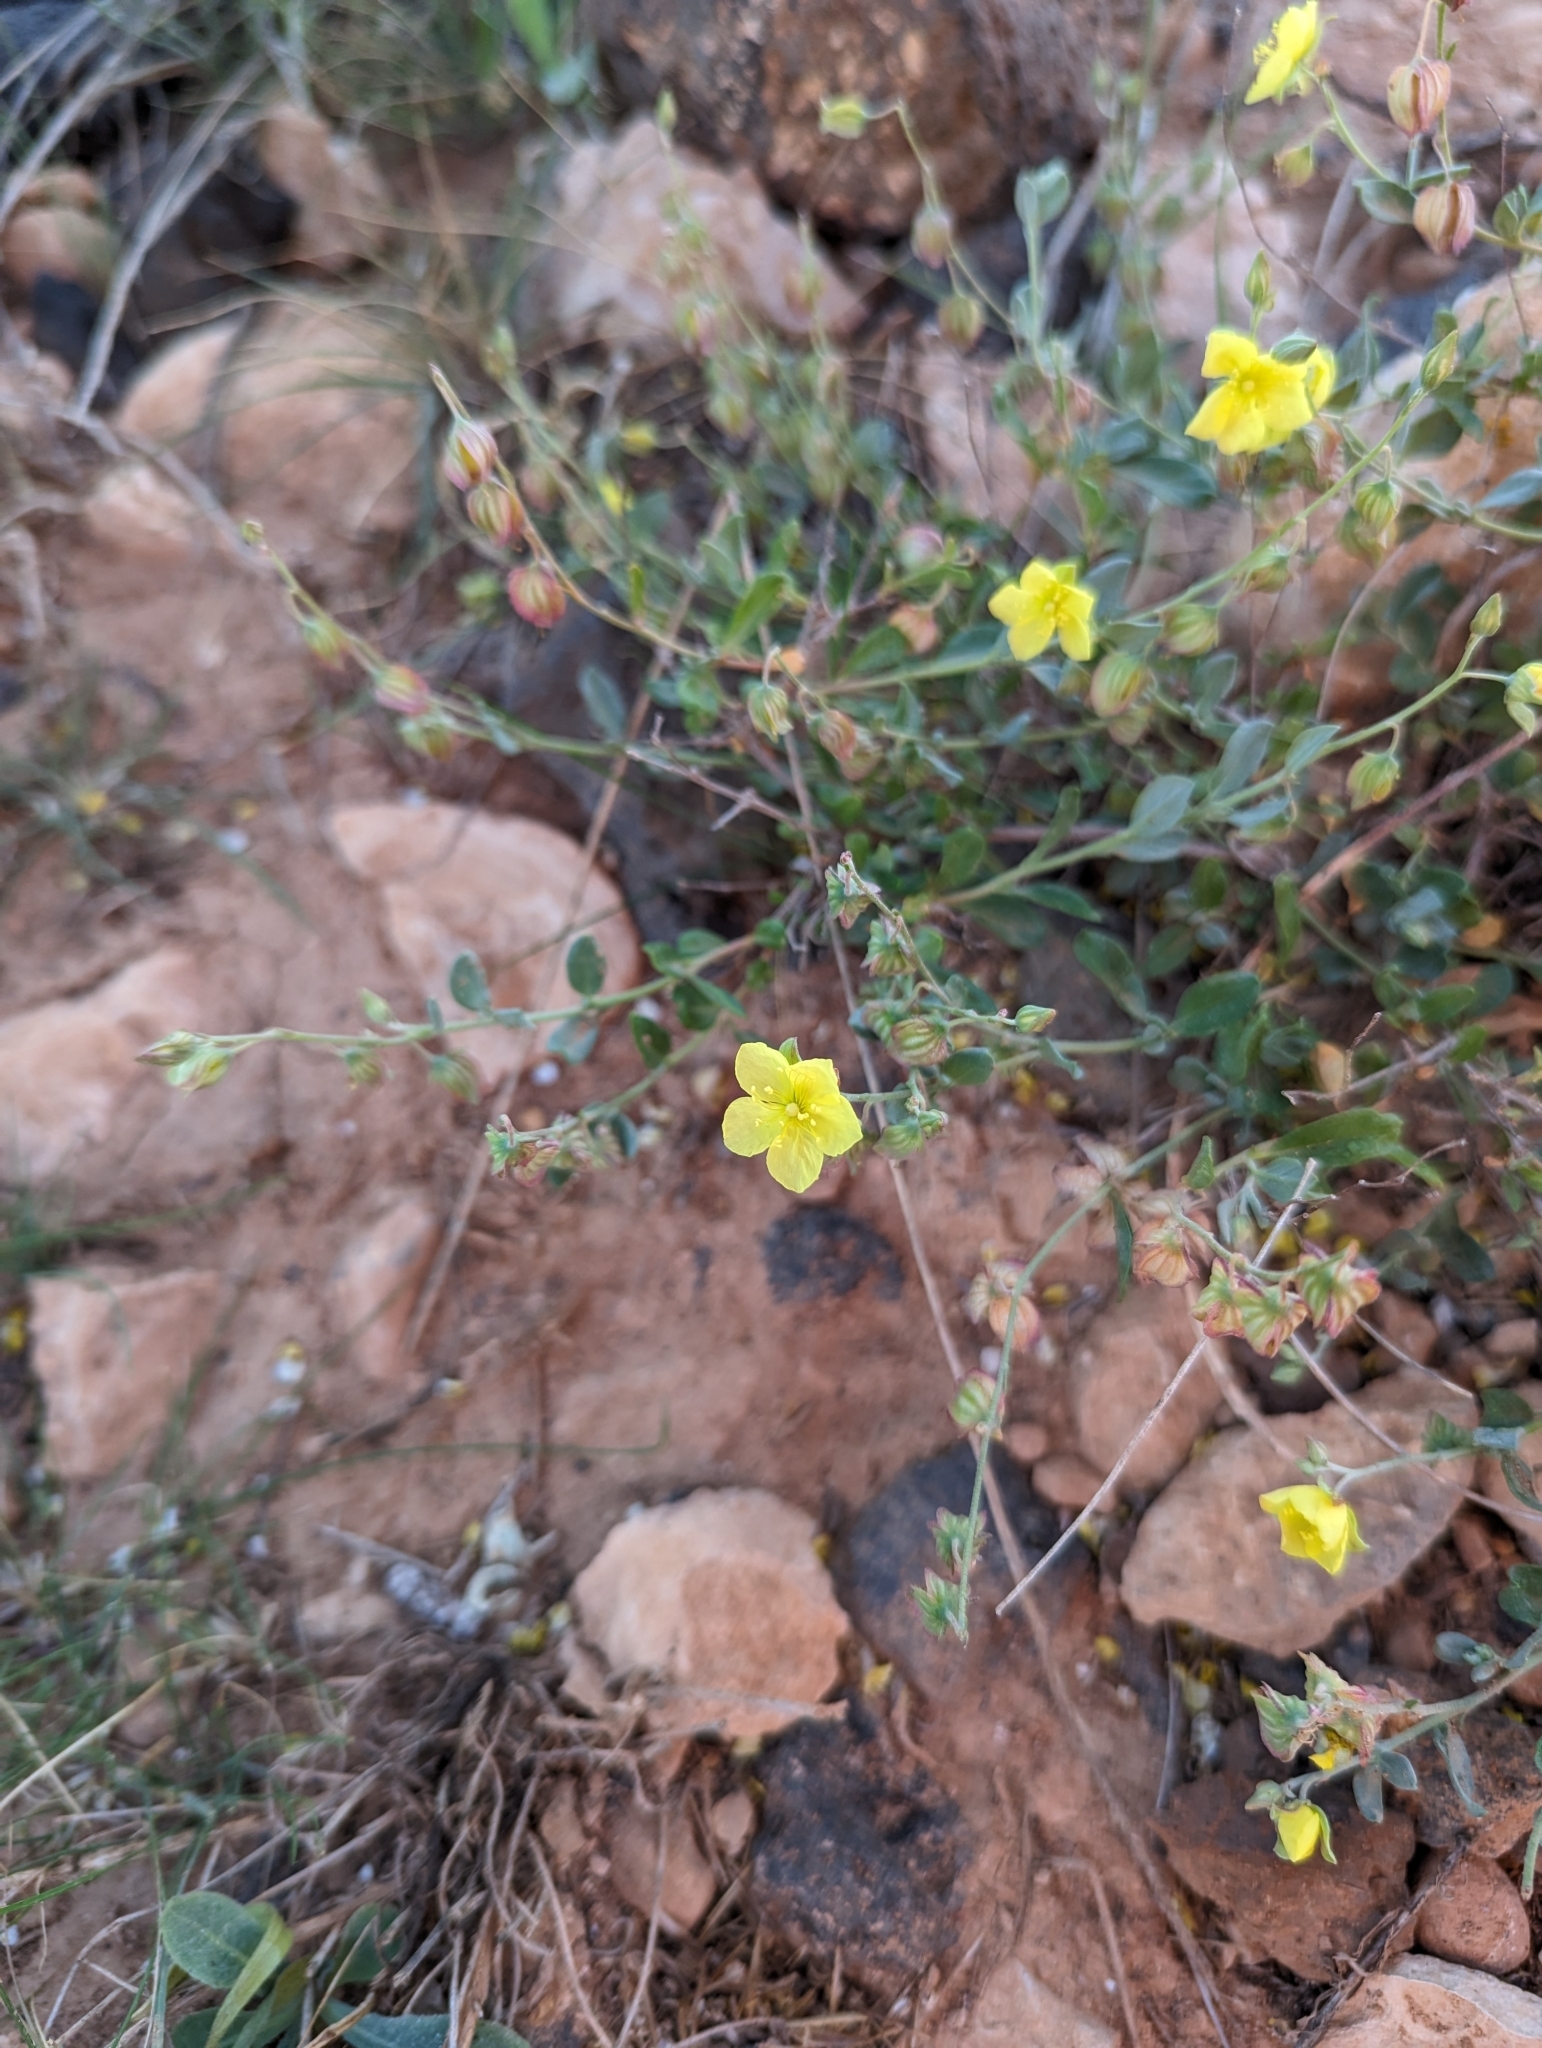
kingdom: Plantae
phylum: Tracheophyta
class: Magnoliopsida
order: Malvales
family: Cistaceae
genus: Helianthemum
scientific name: Helianthemum canariense
